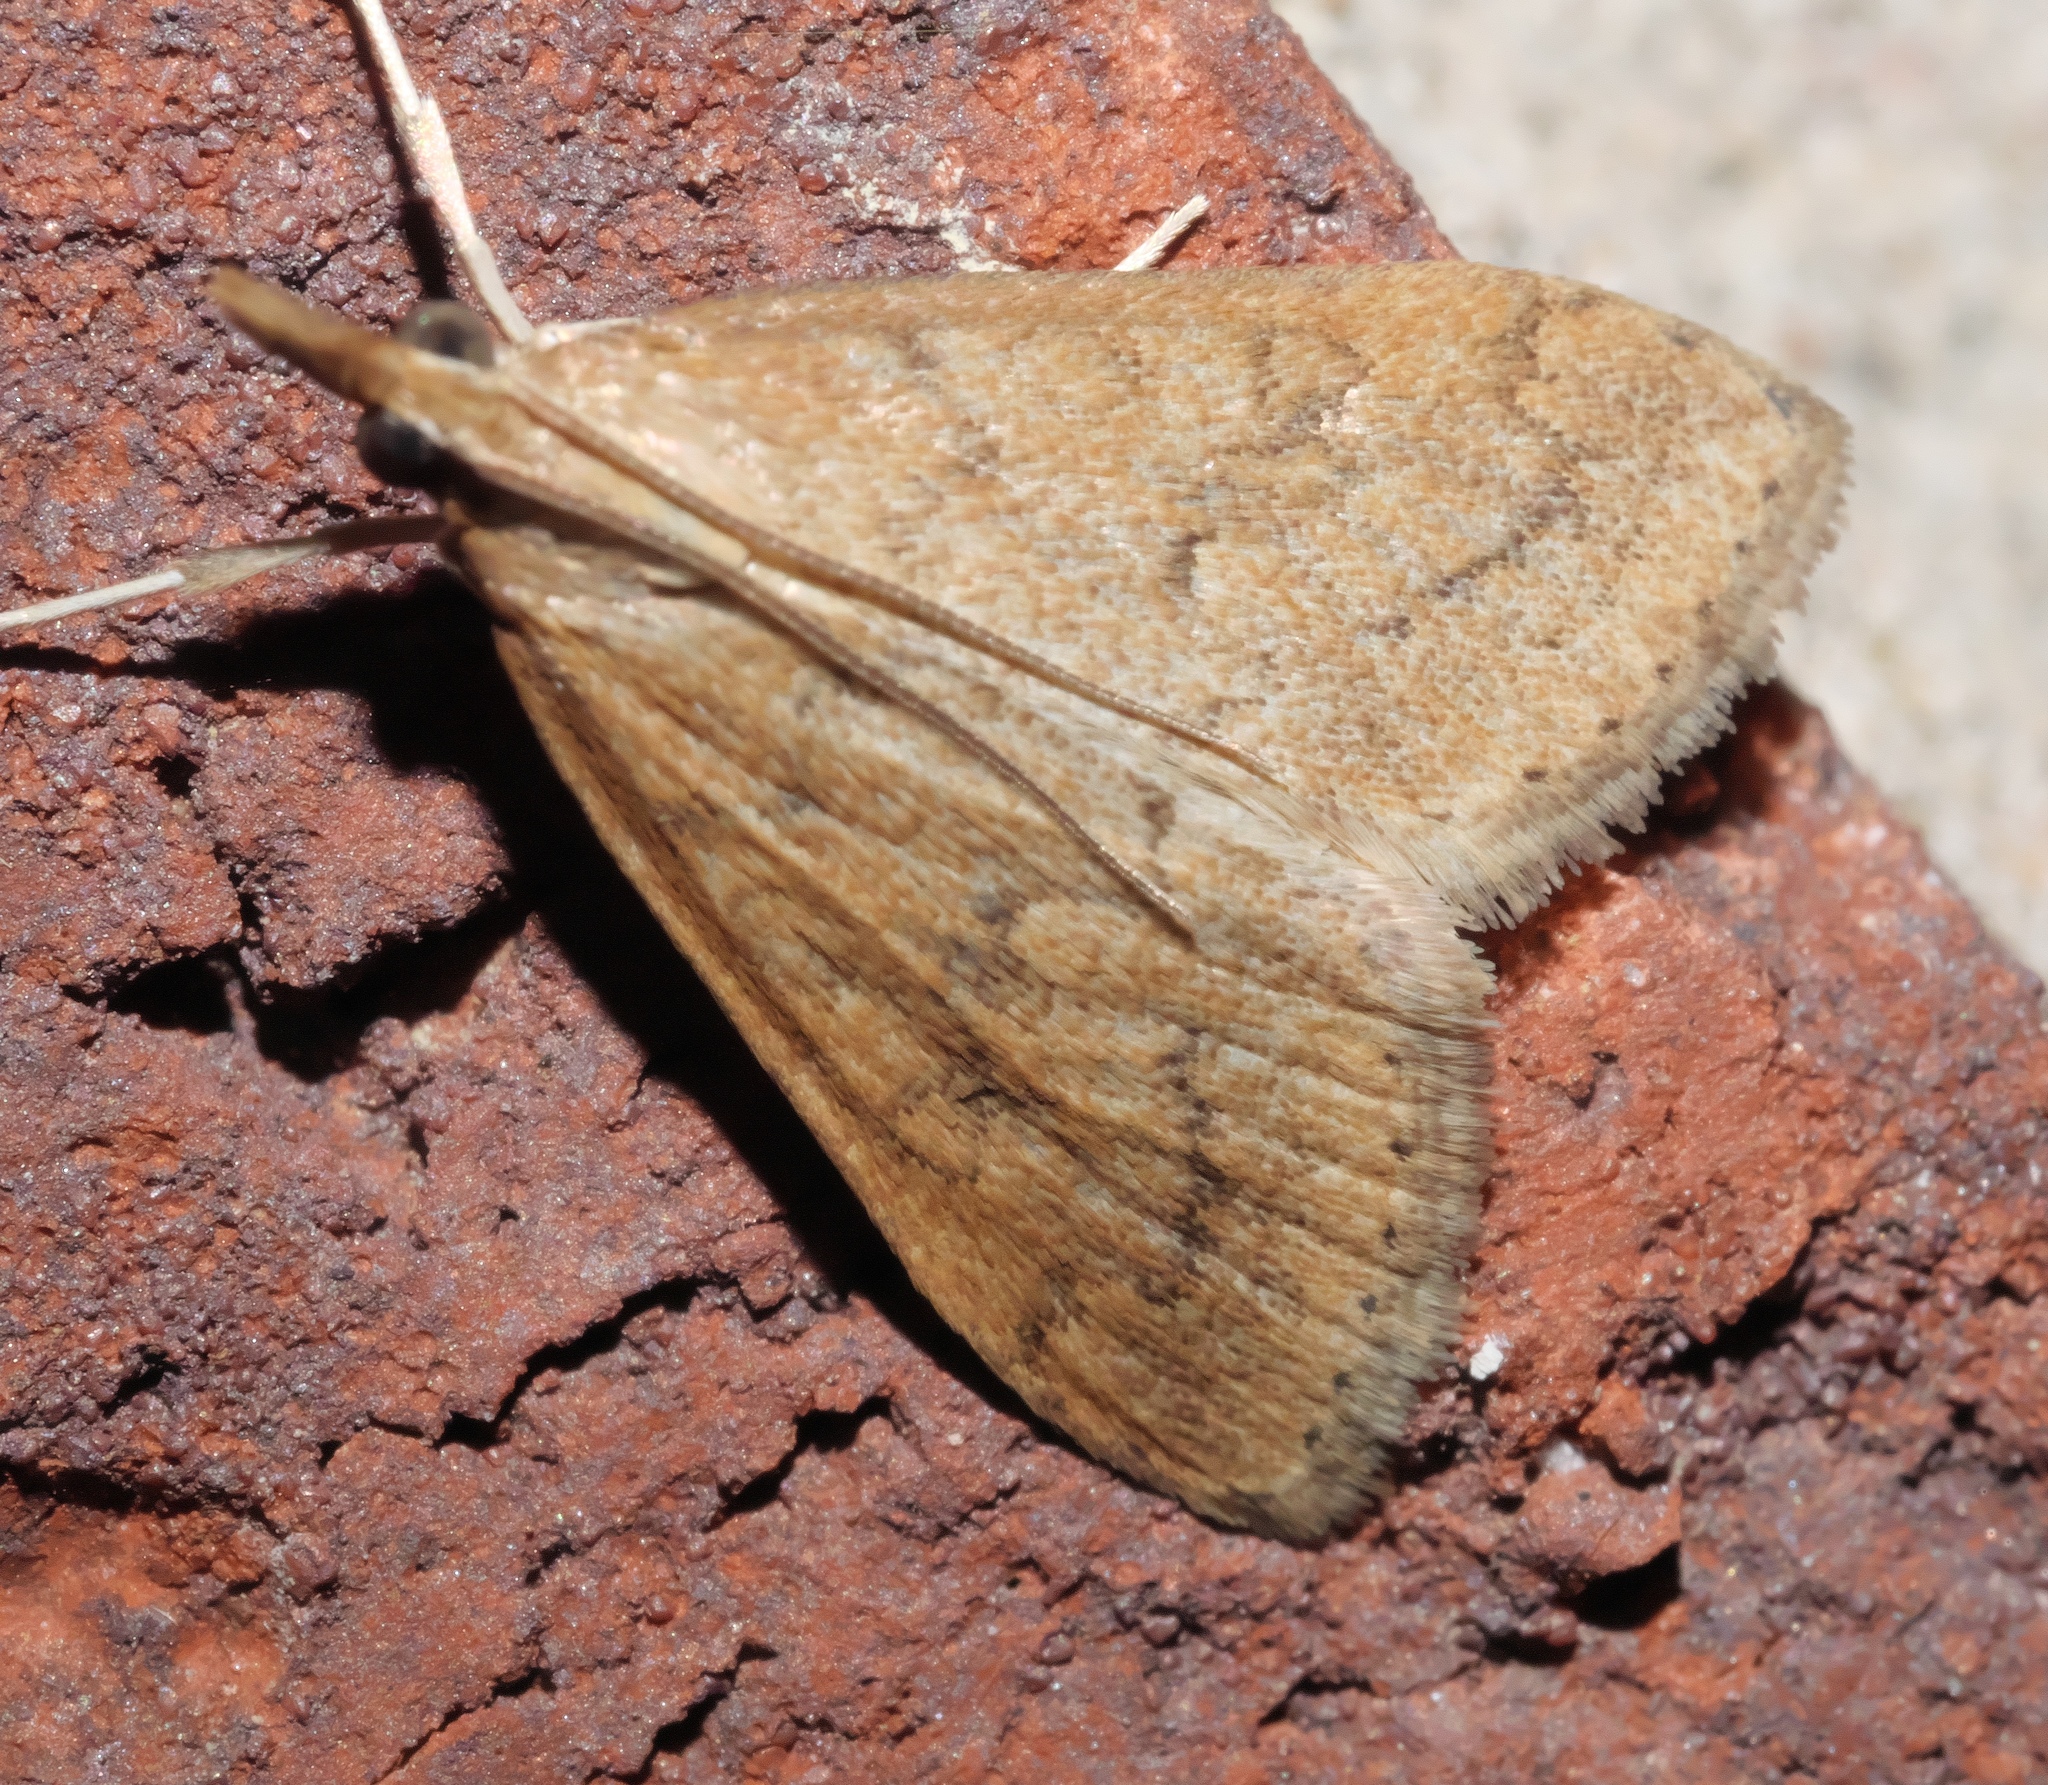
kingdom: Animalia
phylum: Arthropoda
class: Insecta
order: Lepidoptera
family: Crambidae
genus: Udea
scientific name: Udea rubigalis
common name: Celery leaftier moth
